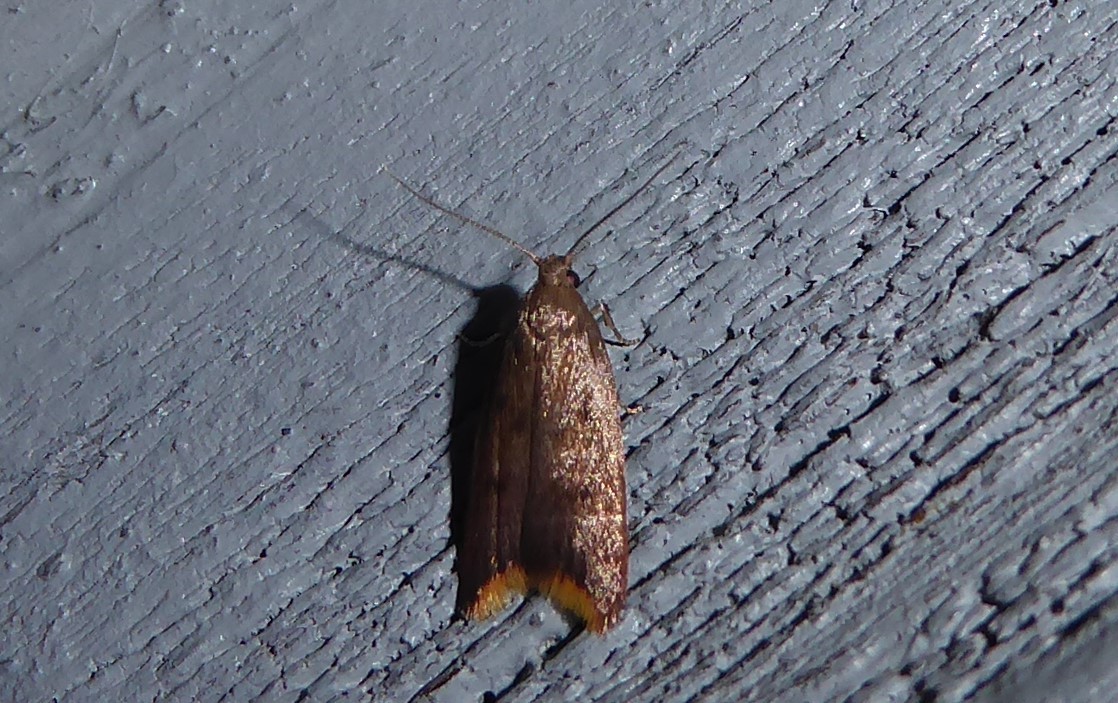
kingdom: Animalia
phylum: Arthropoda
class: Insecta
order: Lepidoptera
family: Oecophoridae
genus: Tachystola
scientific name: Tachystola acroxantha
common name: Ruddy streak
